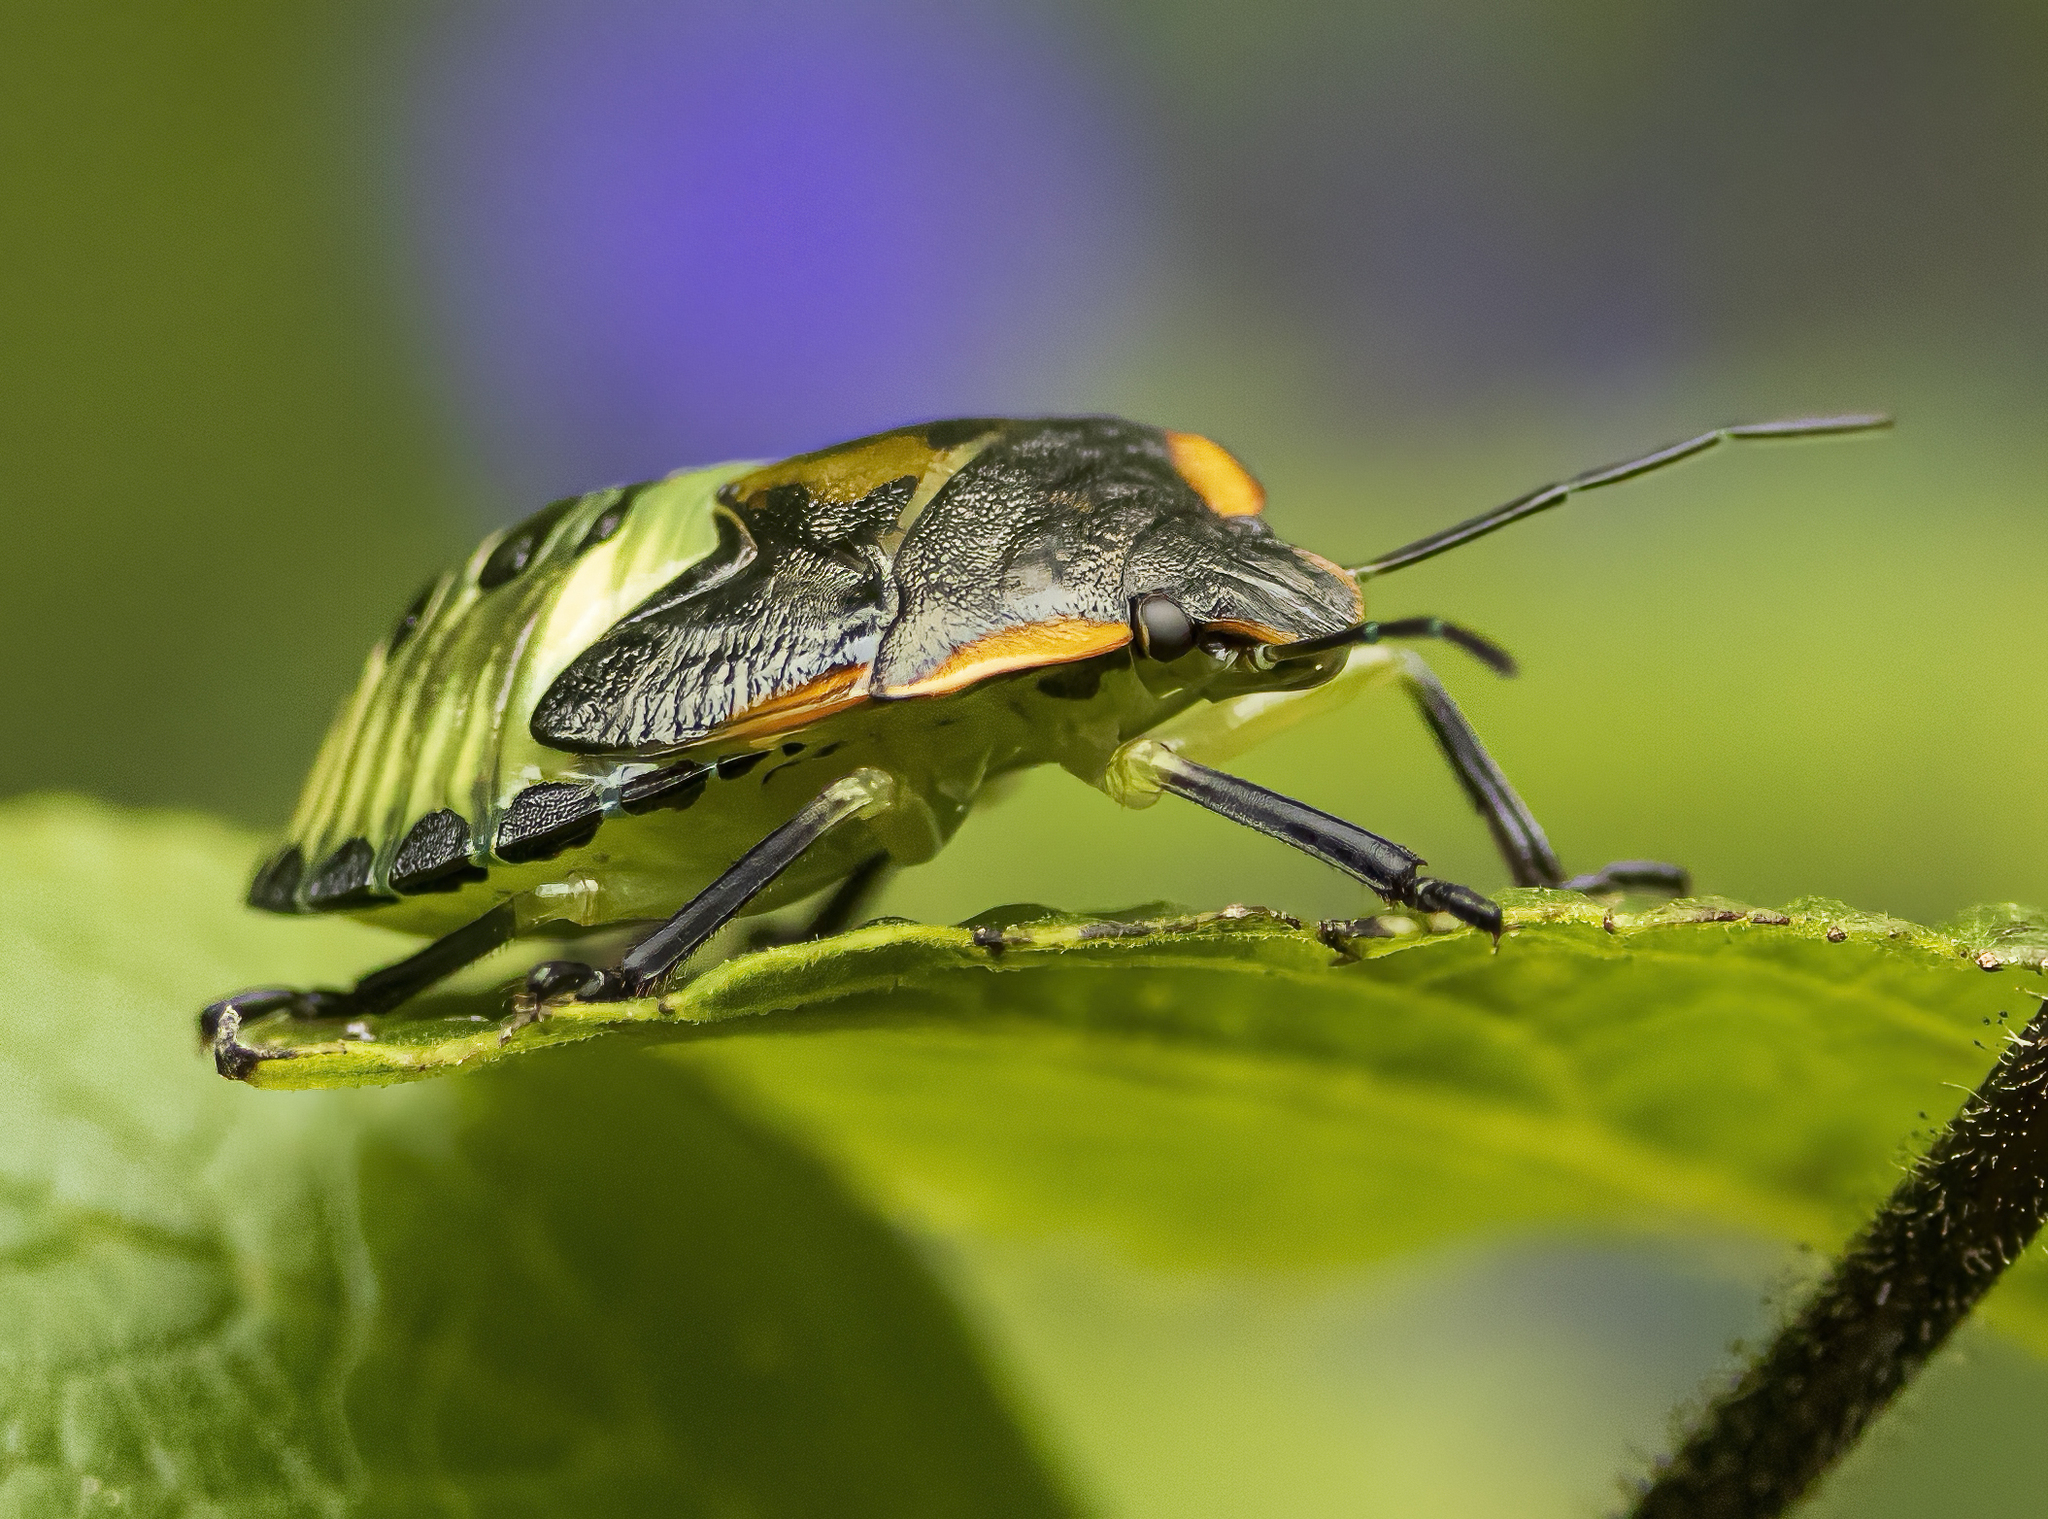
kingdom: Animalia
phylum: Arthropoda
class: Insecta
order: Hemiptera
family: Pentatomidae
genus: Chinavia
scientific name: Chinavia hilaris
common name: Green stink bug
